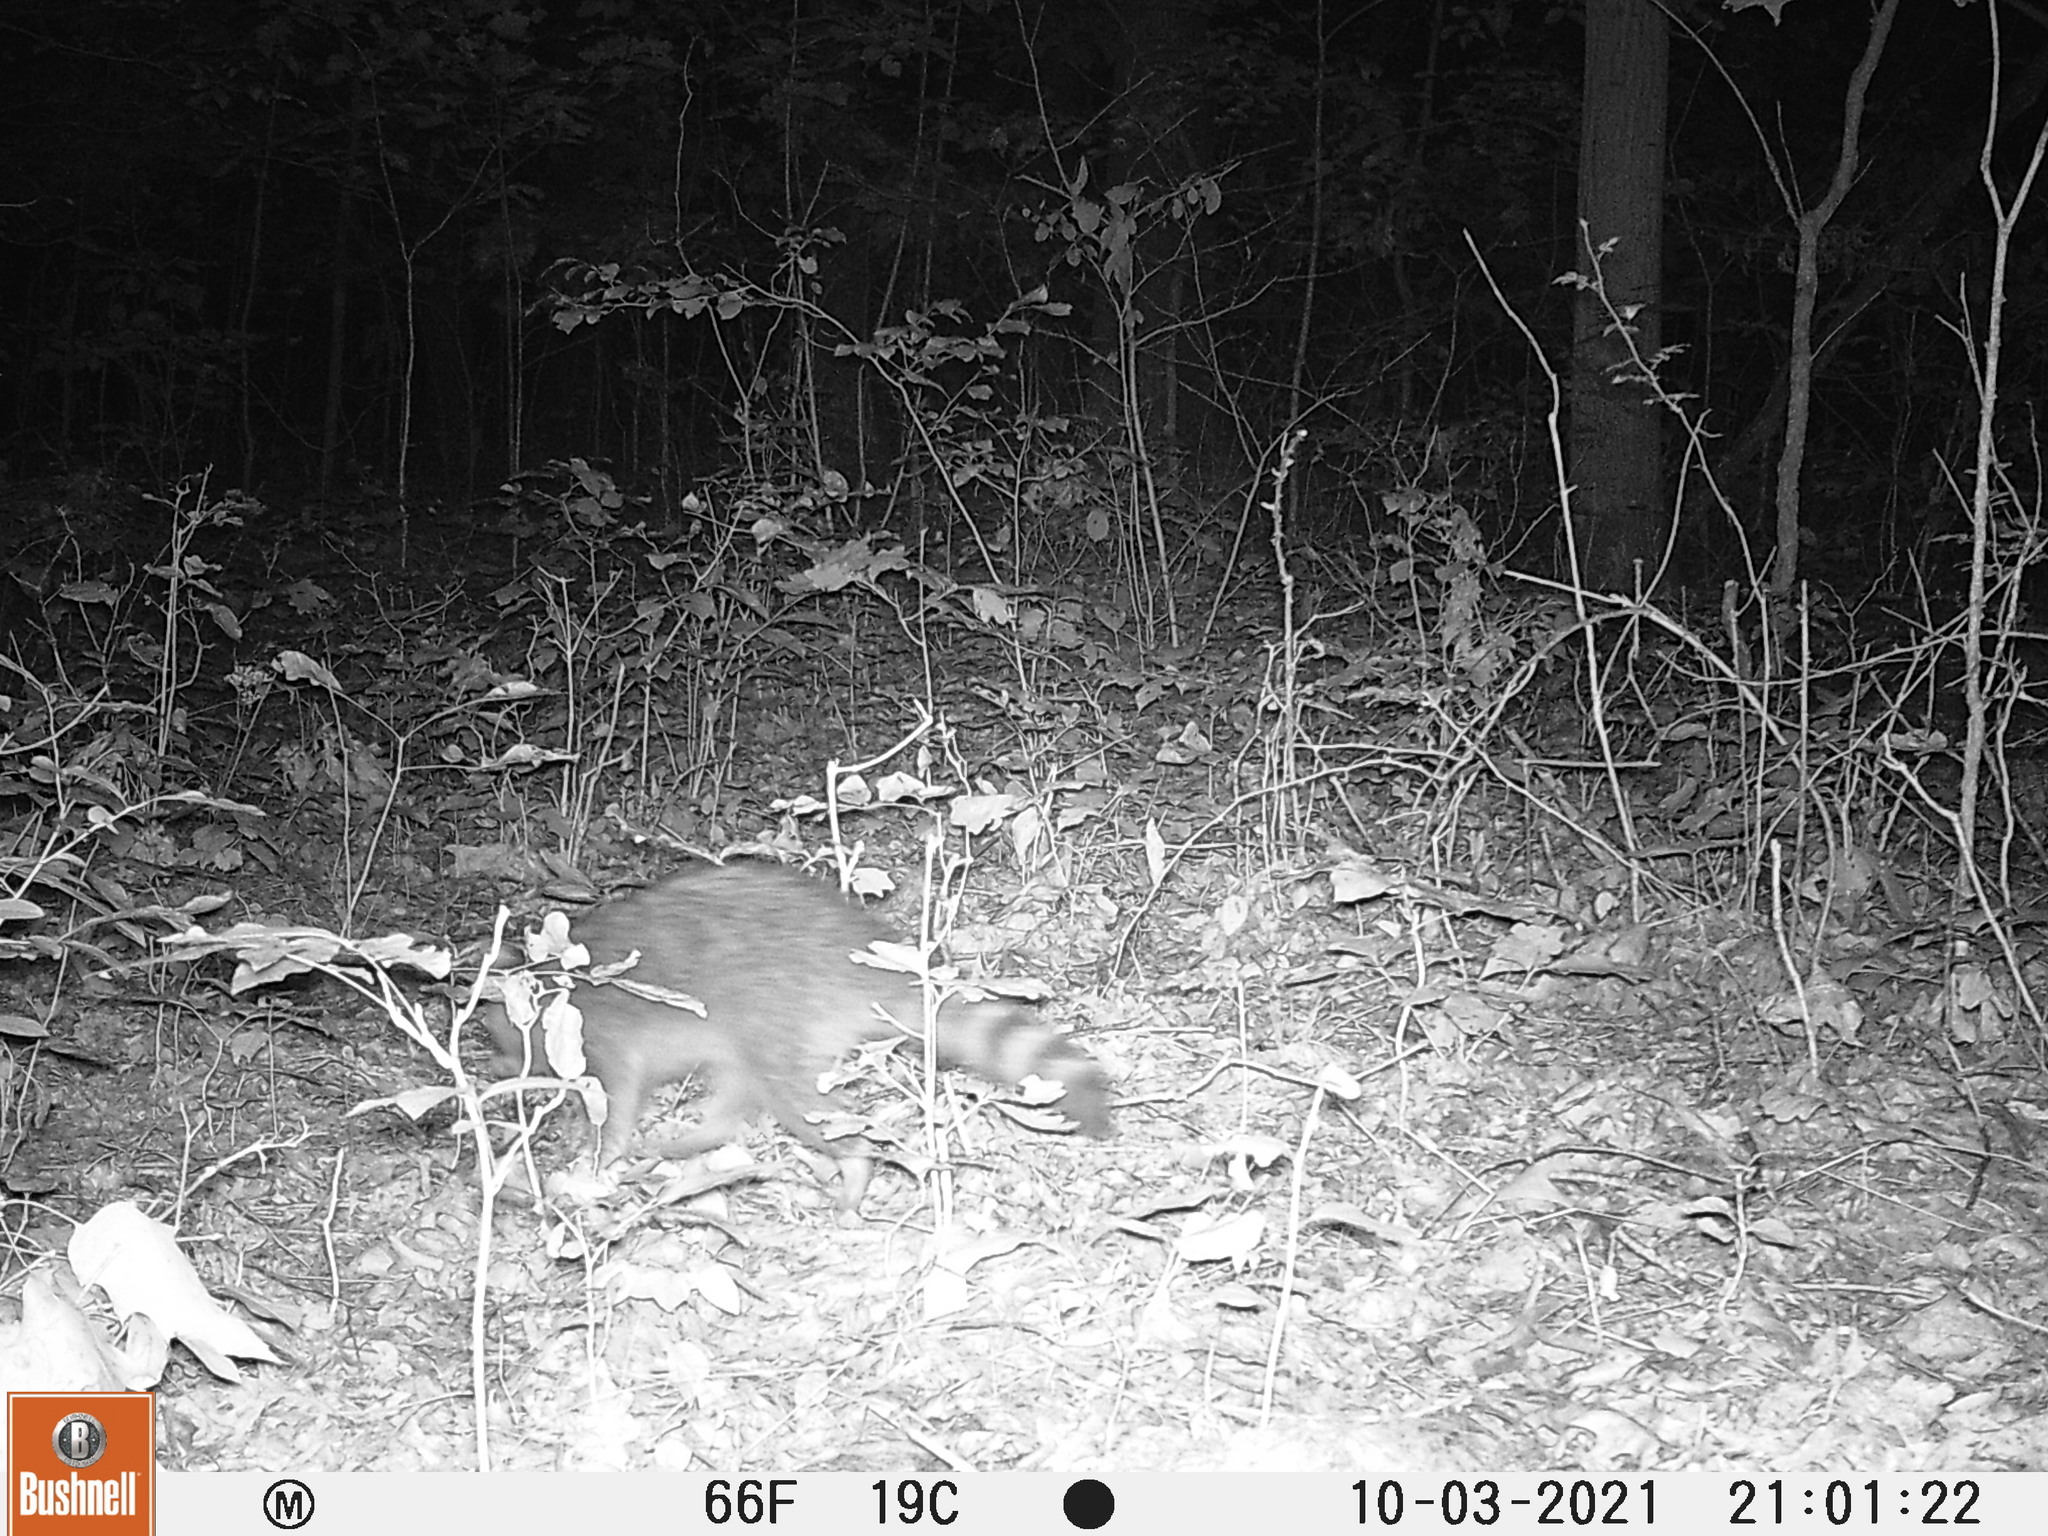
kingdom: Animalia
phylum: Chordata
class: Mammalia
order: Carnivora
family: Procyonidae
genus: Procyon
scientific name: Procyon lotor
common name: Raccoon
